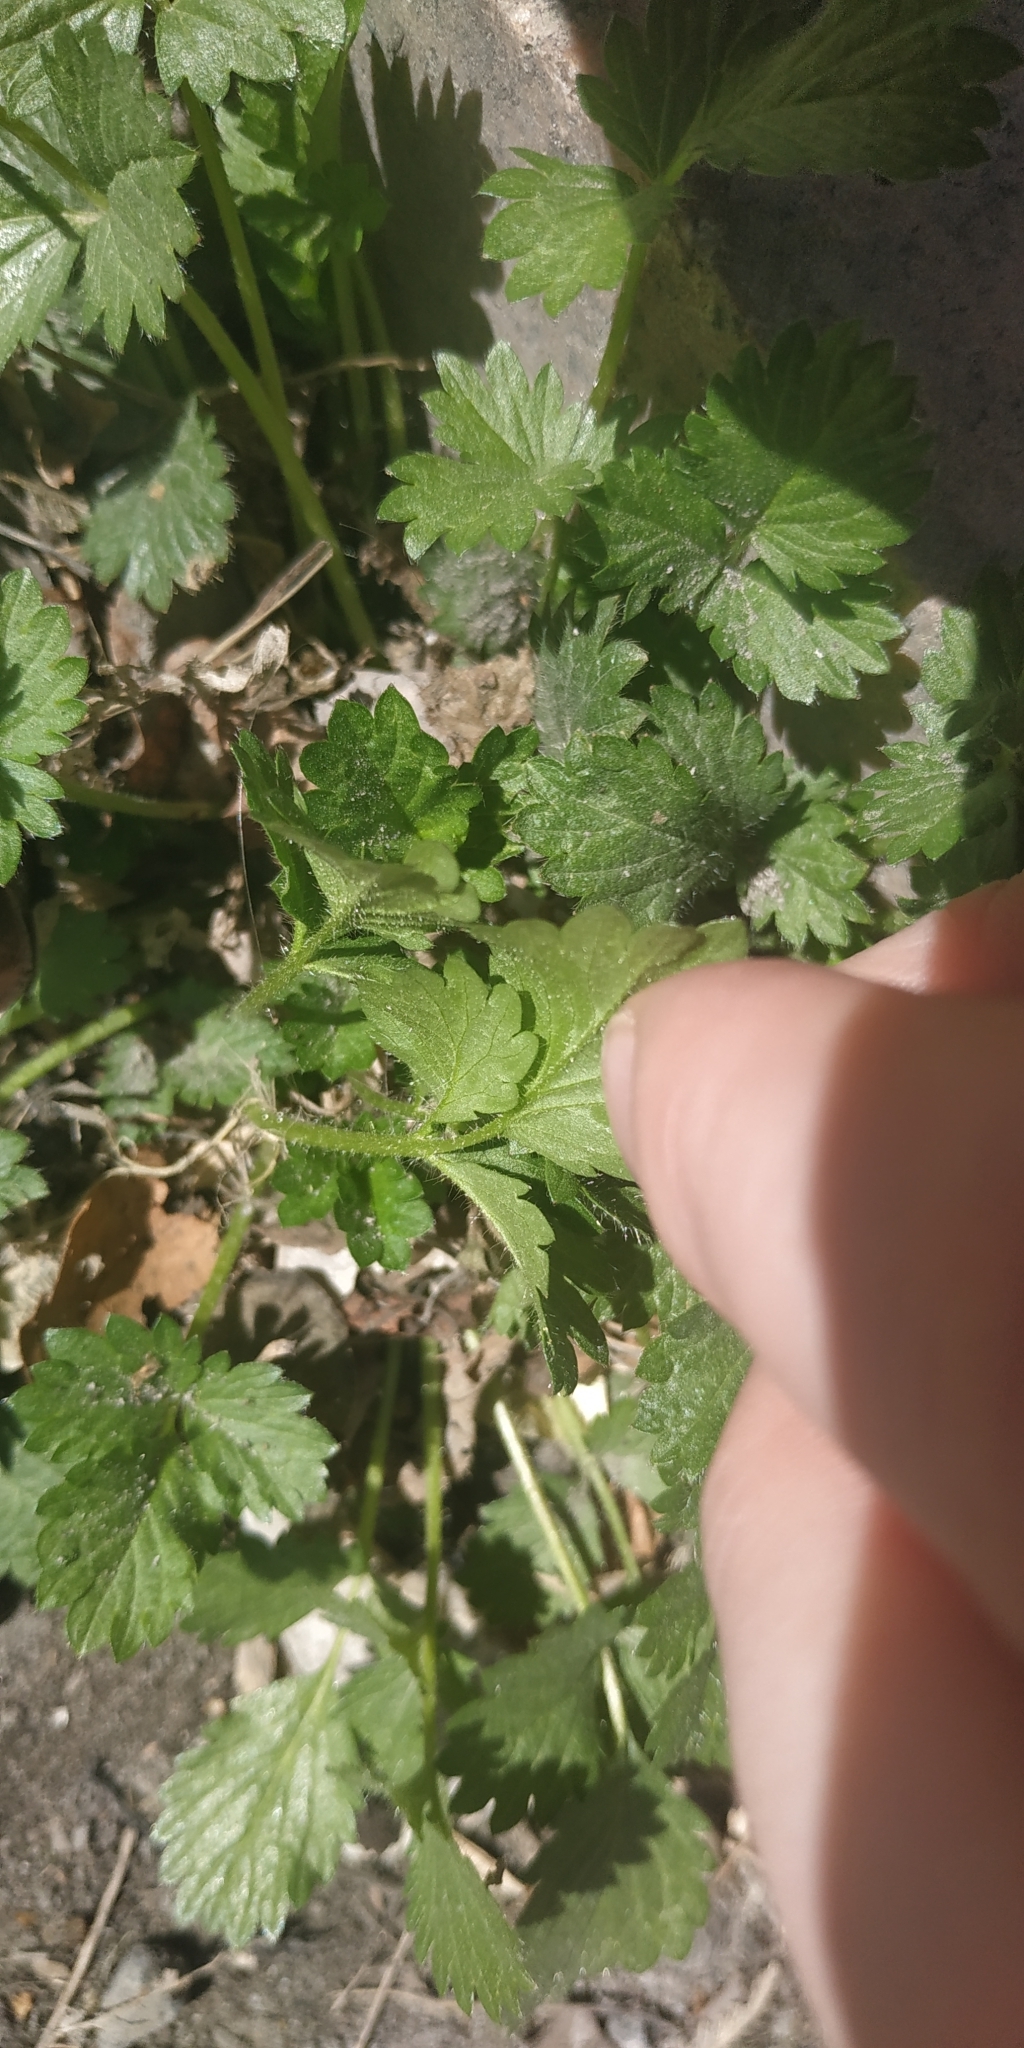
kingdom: Plantae
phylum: Tracheophyta
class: Magnoliopsida
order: Rosales
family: Rosaceae
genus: Potentilla
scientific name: Potentilla norvegica
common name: Ternate-leaved cinquefoil
